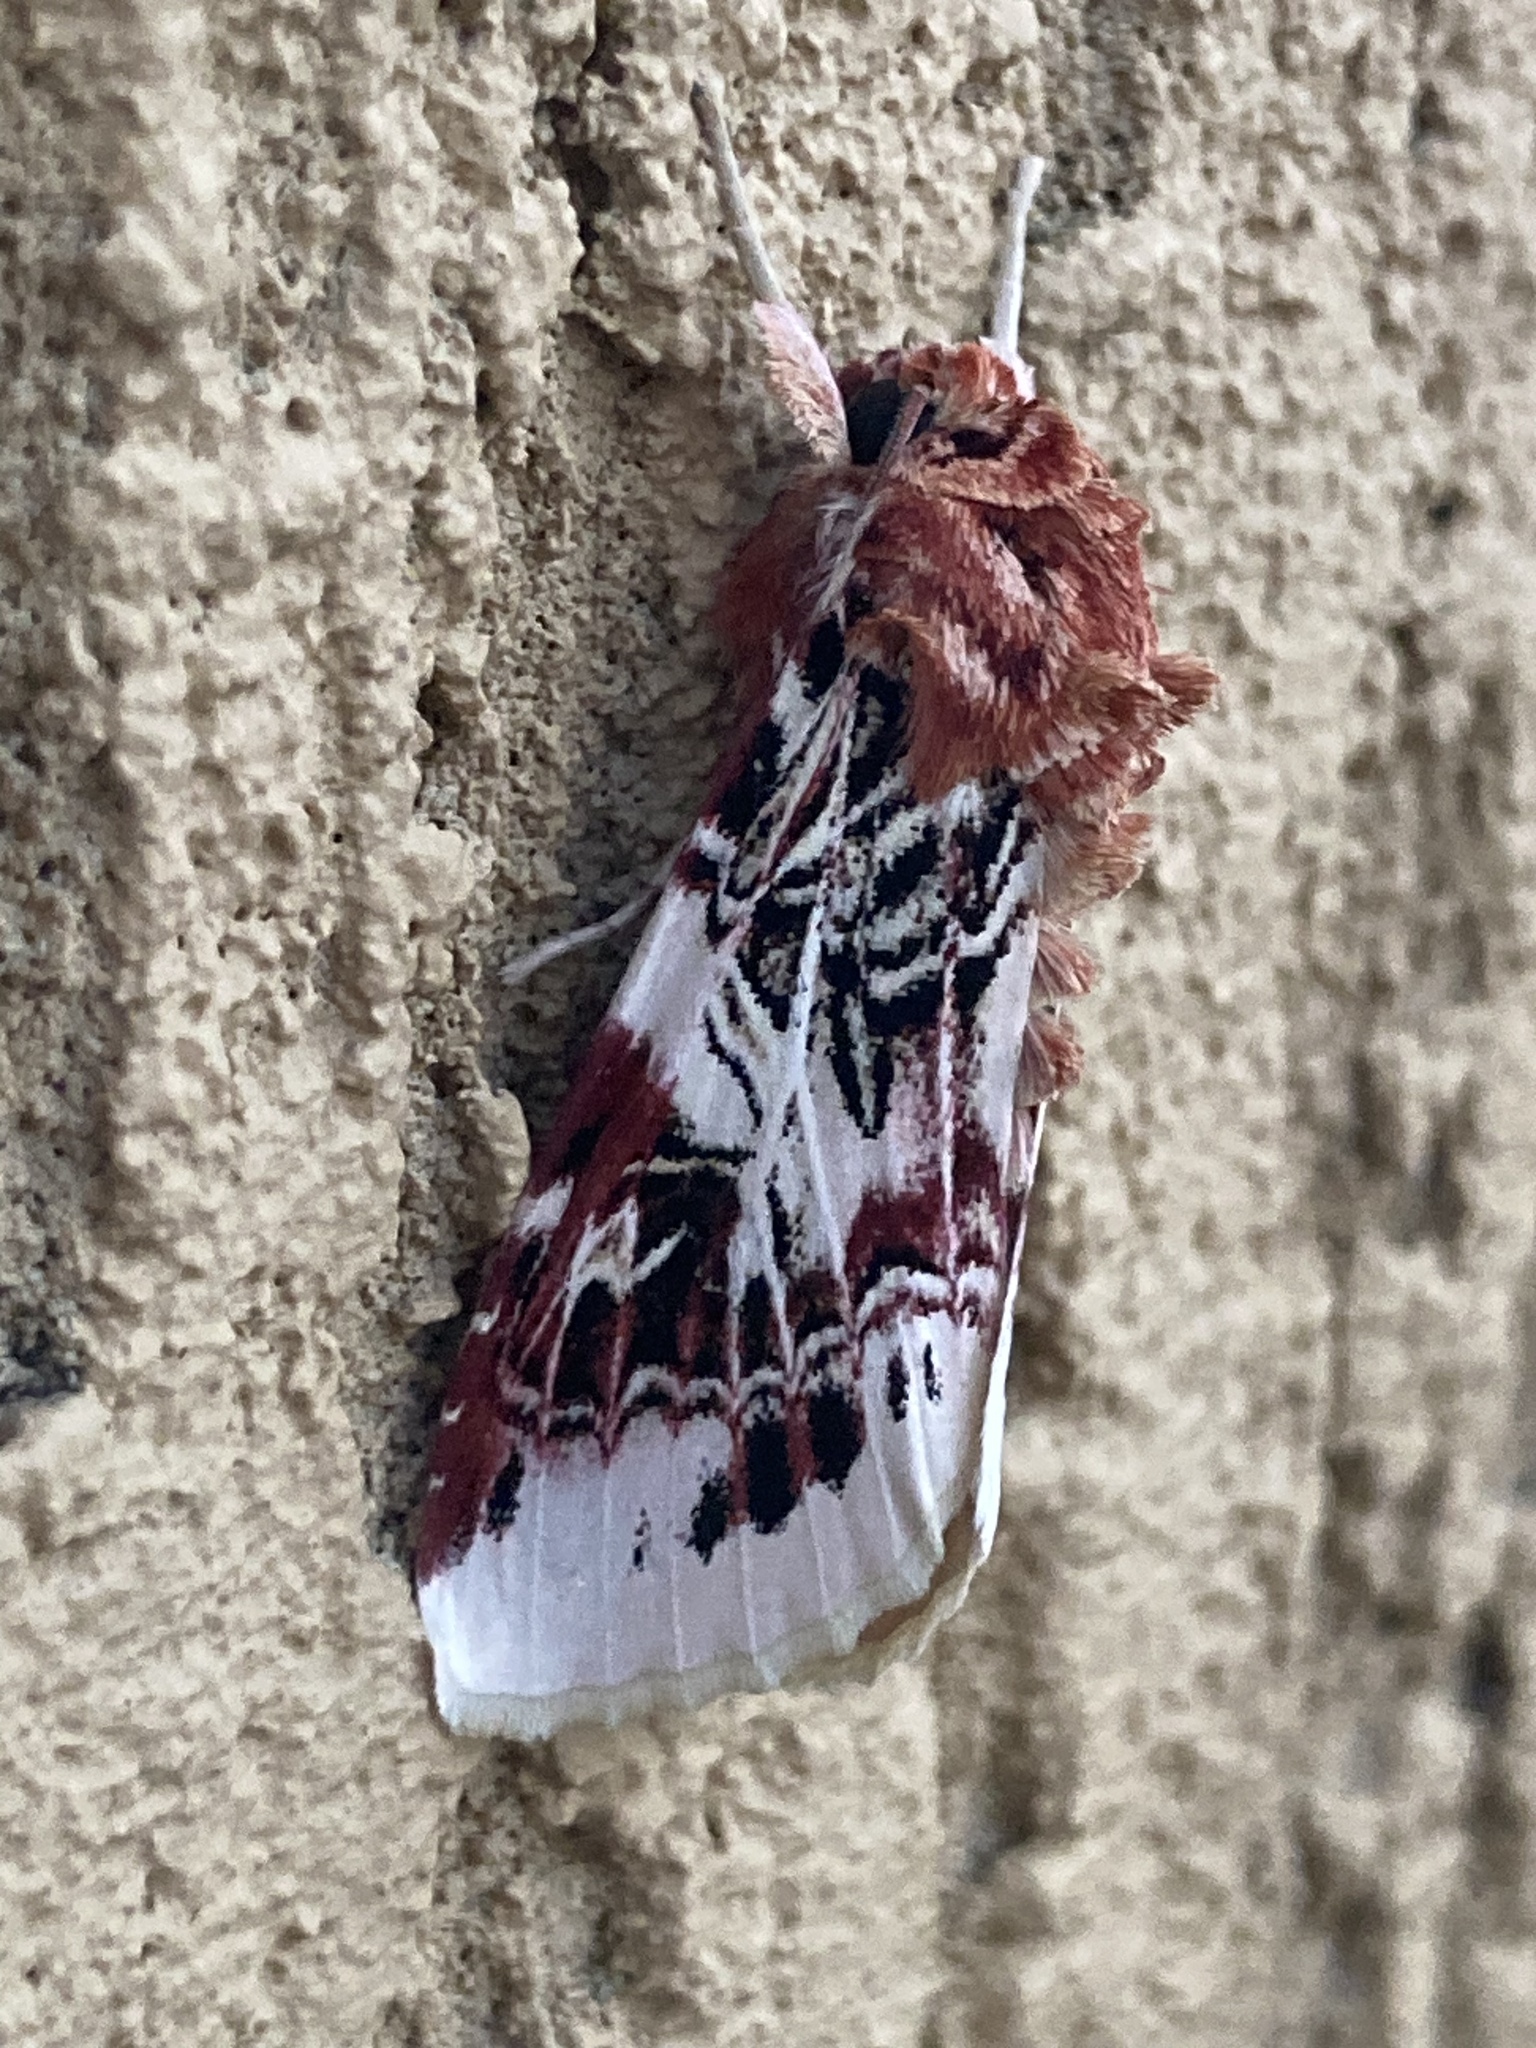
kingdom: Animalia
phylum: Arthropoda
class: Insecta
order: Lepidoptera
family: Noctuidae
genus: Spodoptera
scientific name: Spodoptera picta
